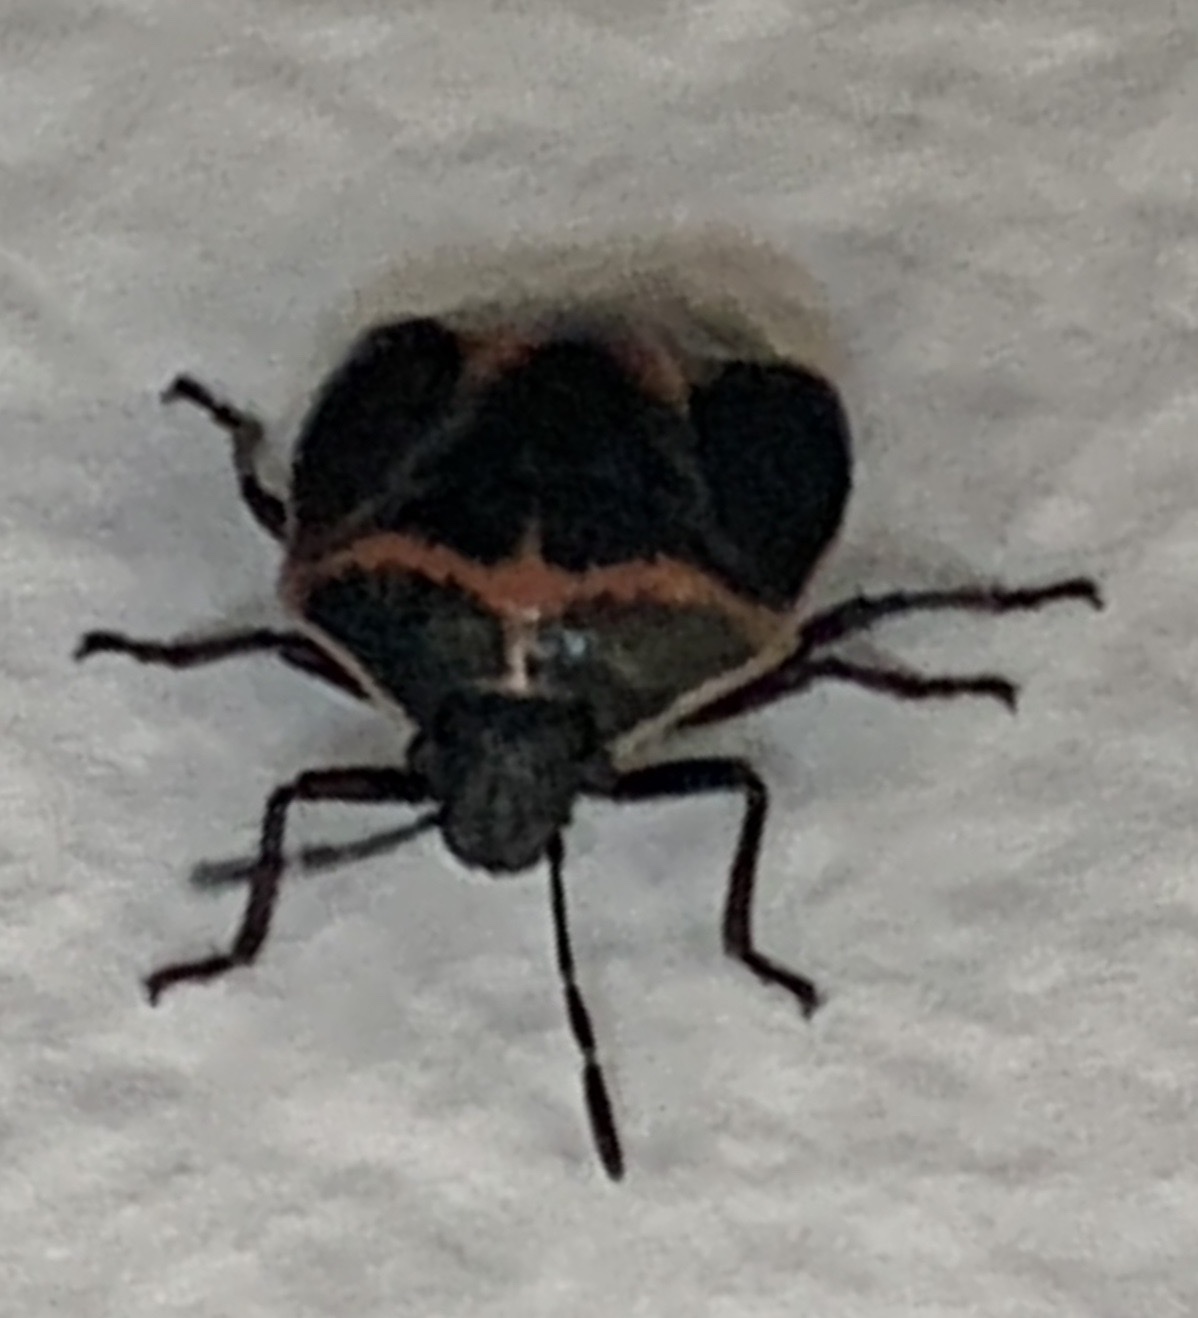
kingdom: Animalia
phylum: Arthropoda
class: Insecta
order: Hemiptera
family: Pentatomidae
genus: Cosmopepla
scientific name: Cosmopepla lintneriana
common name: Twice-stabbed stink bug
